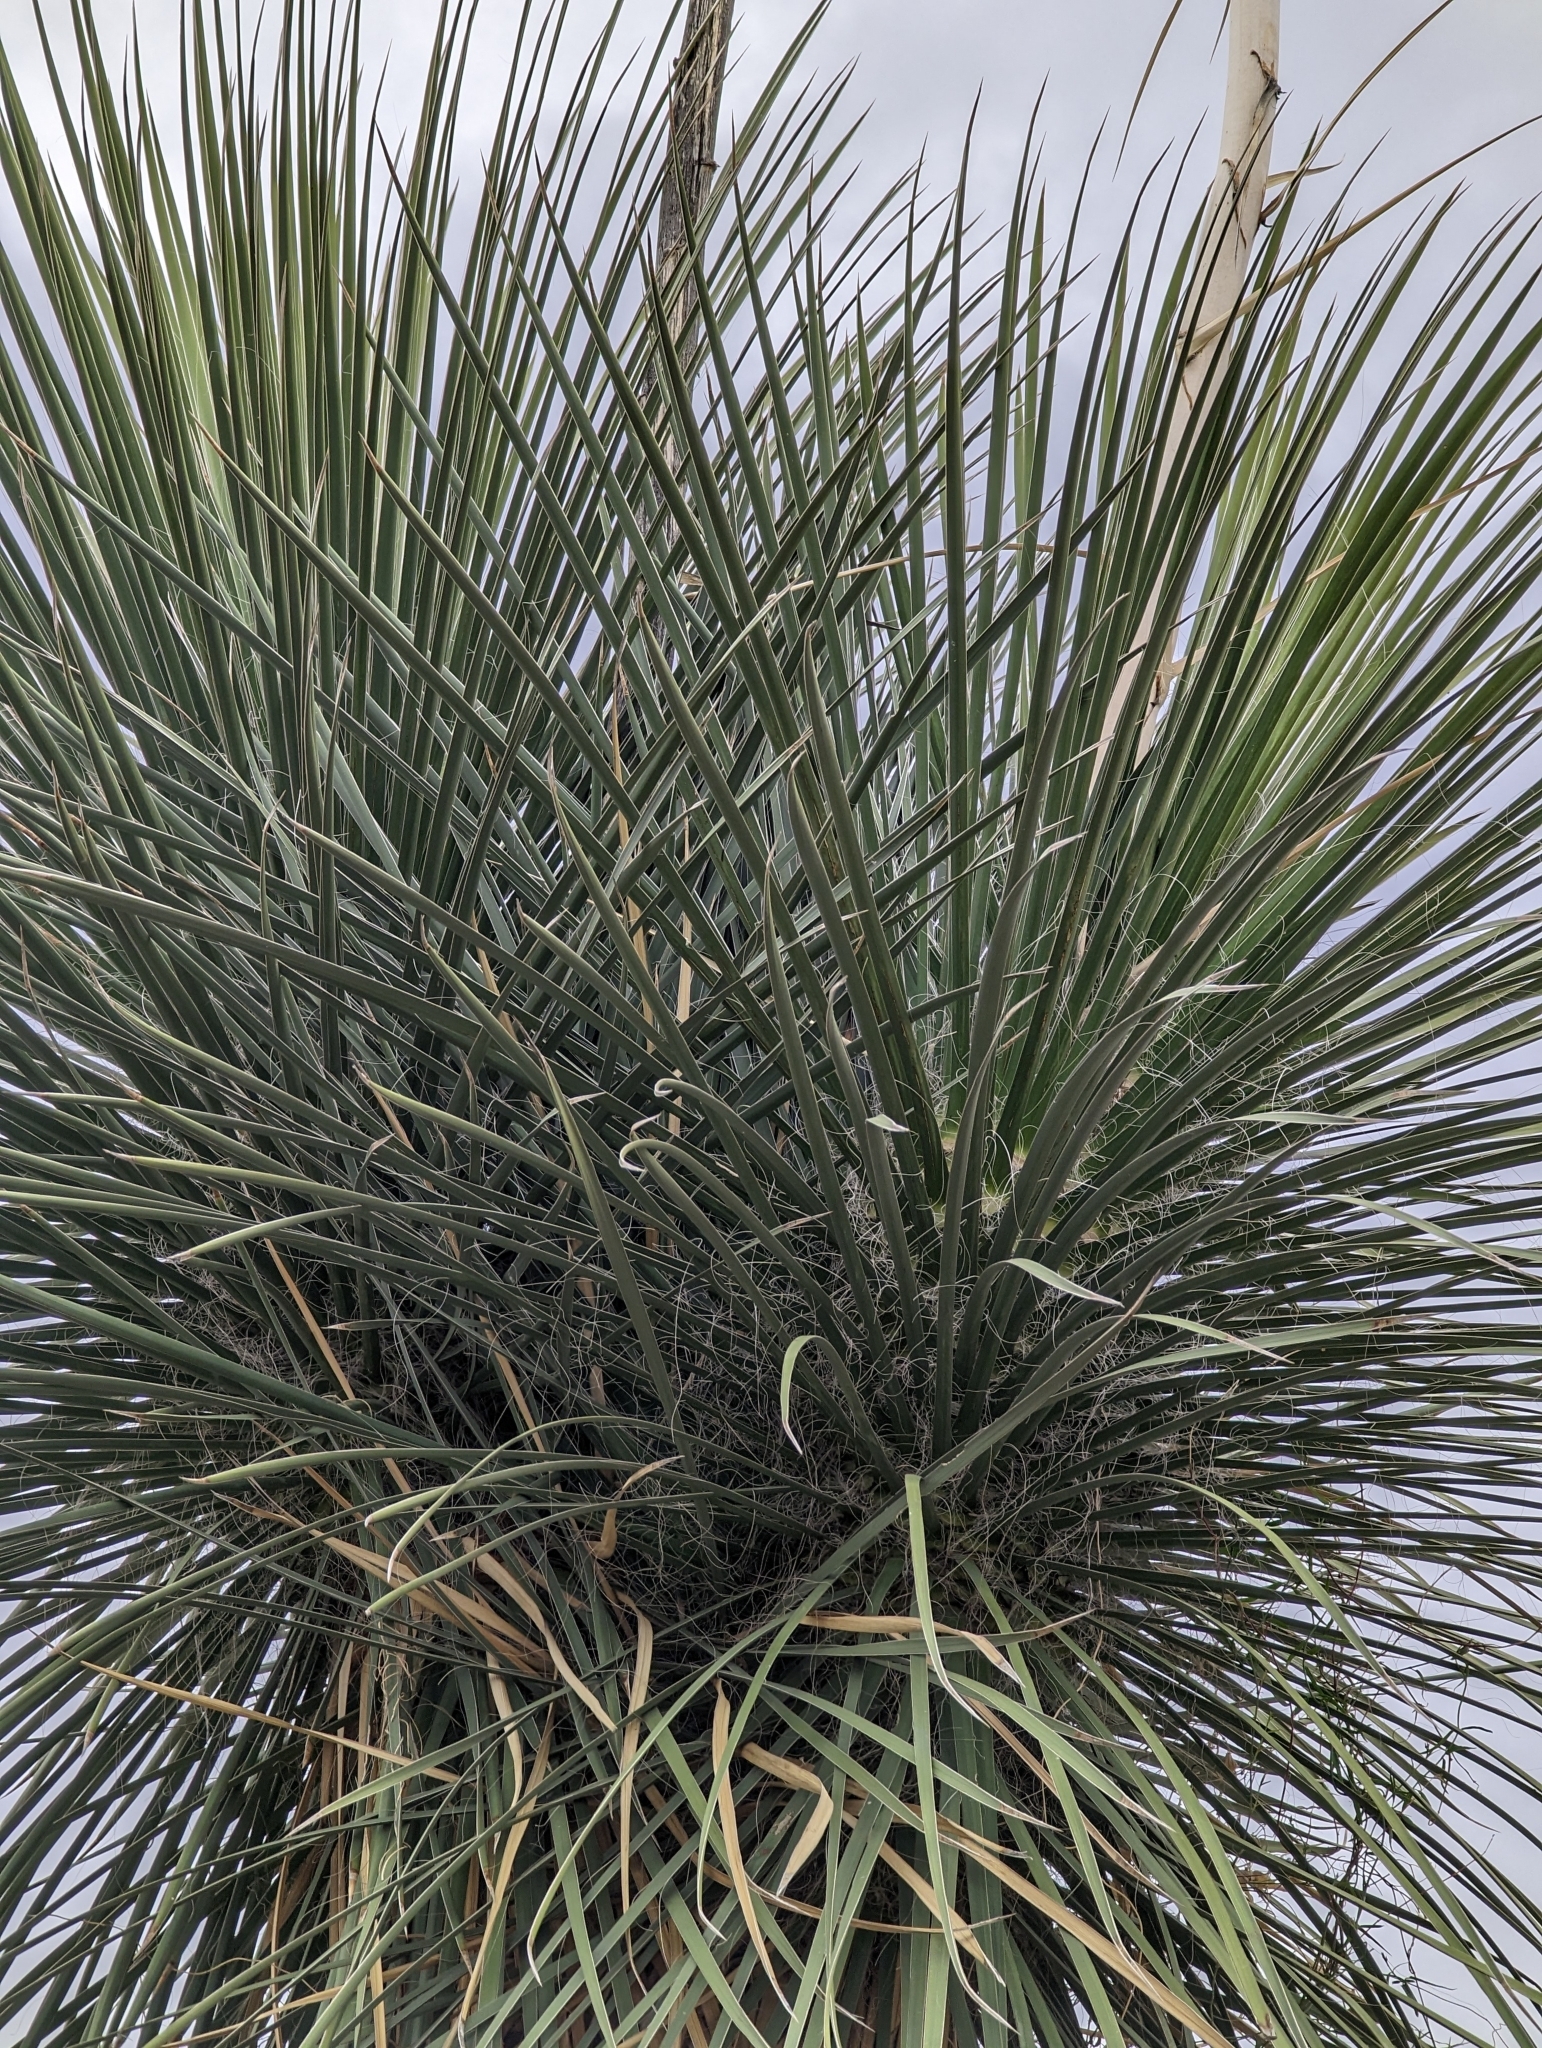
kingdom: Plantae
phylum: Tracheophyta
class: Liliopsida
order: Asparagales
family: Asparagaceae
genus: Yucca
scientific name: Yucca elata
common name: Palmella
